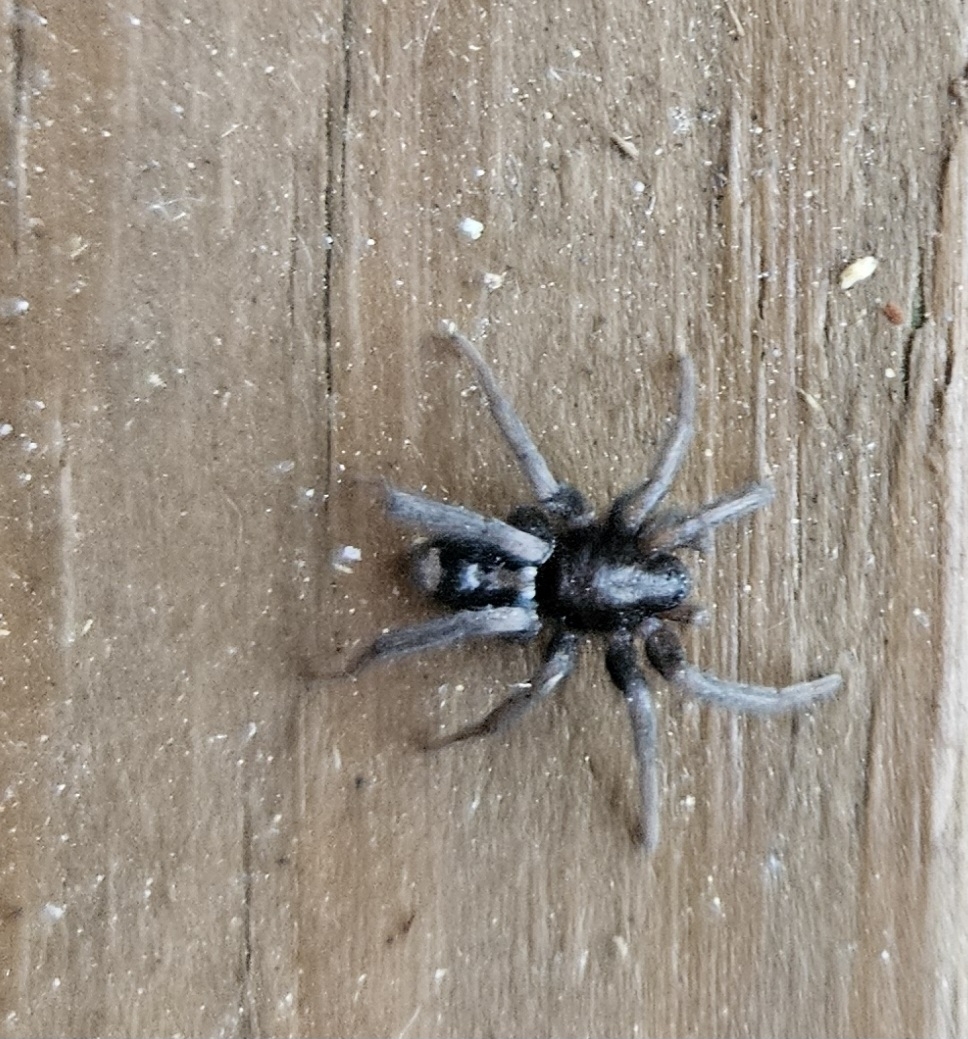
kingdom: Animalia
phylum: Arthropoda
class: Arachnida
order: Araneae
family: Gnaphosidae
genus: Herpyllus
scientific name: Herpyllus ecclesiasticus
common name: Eastern parson spider
